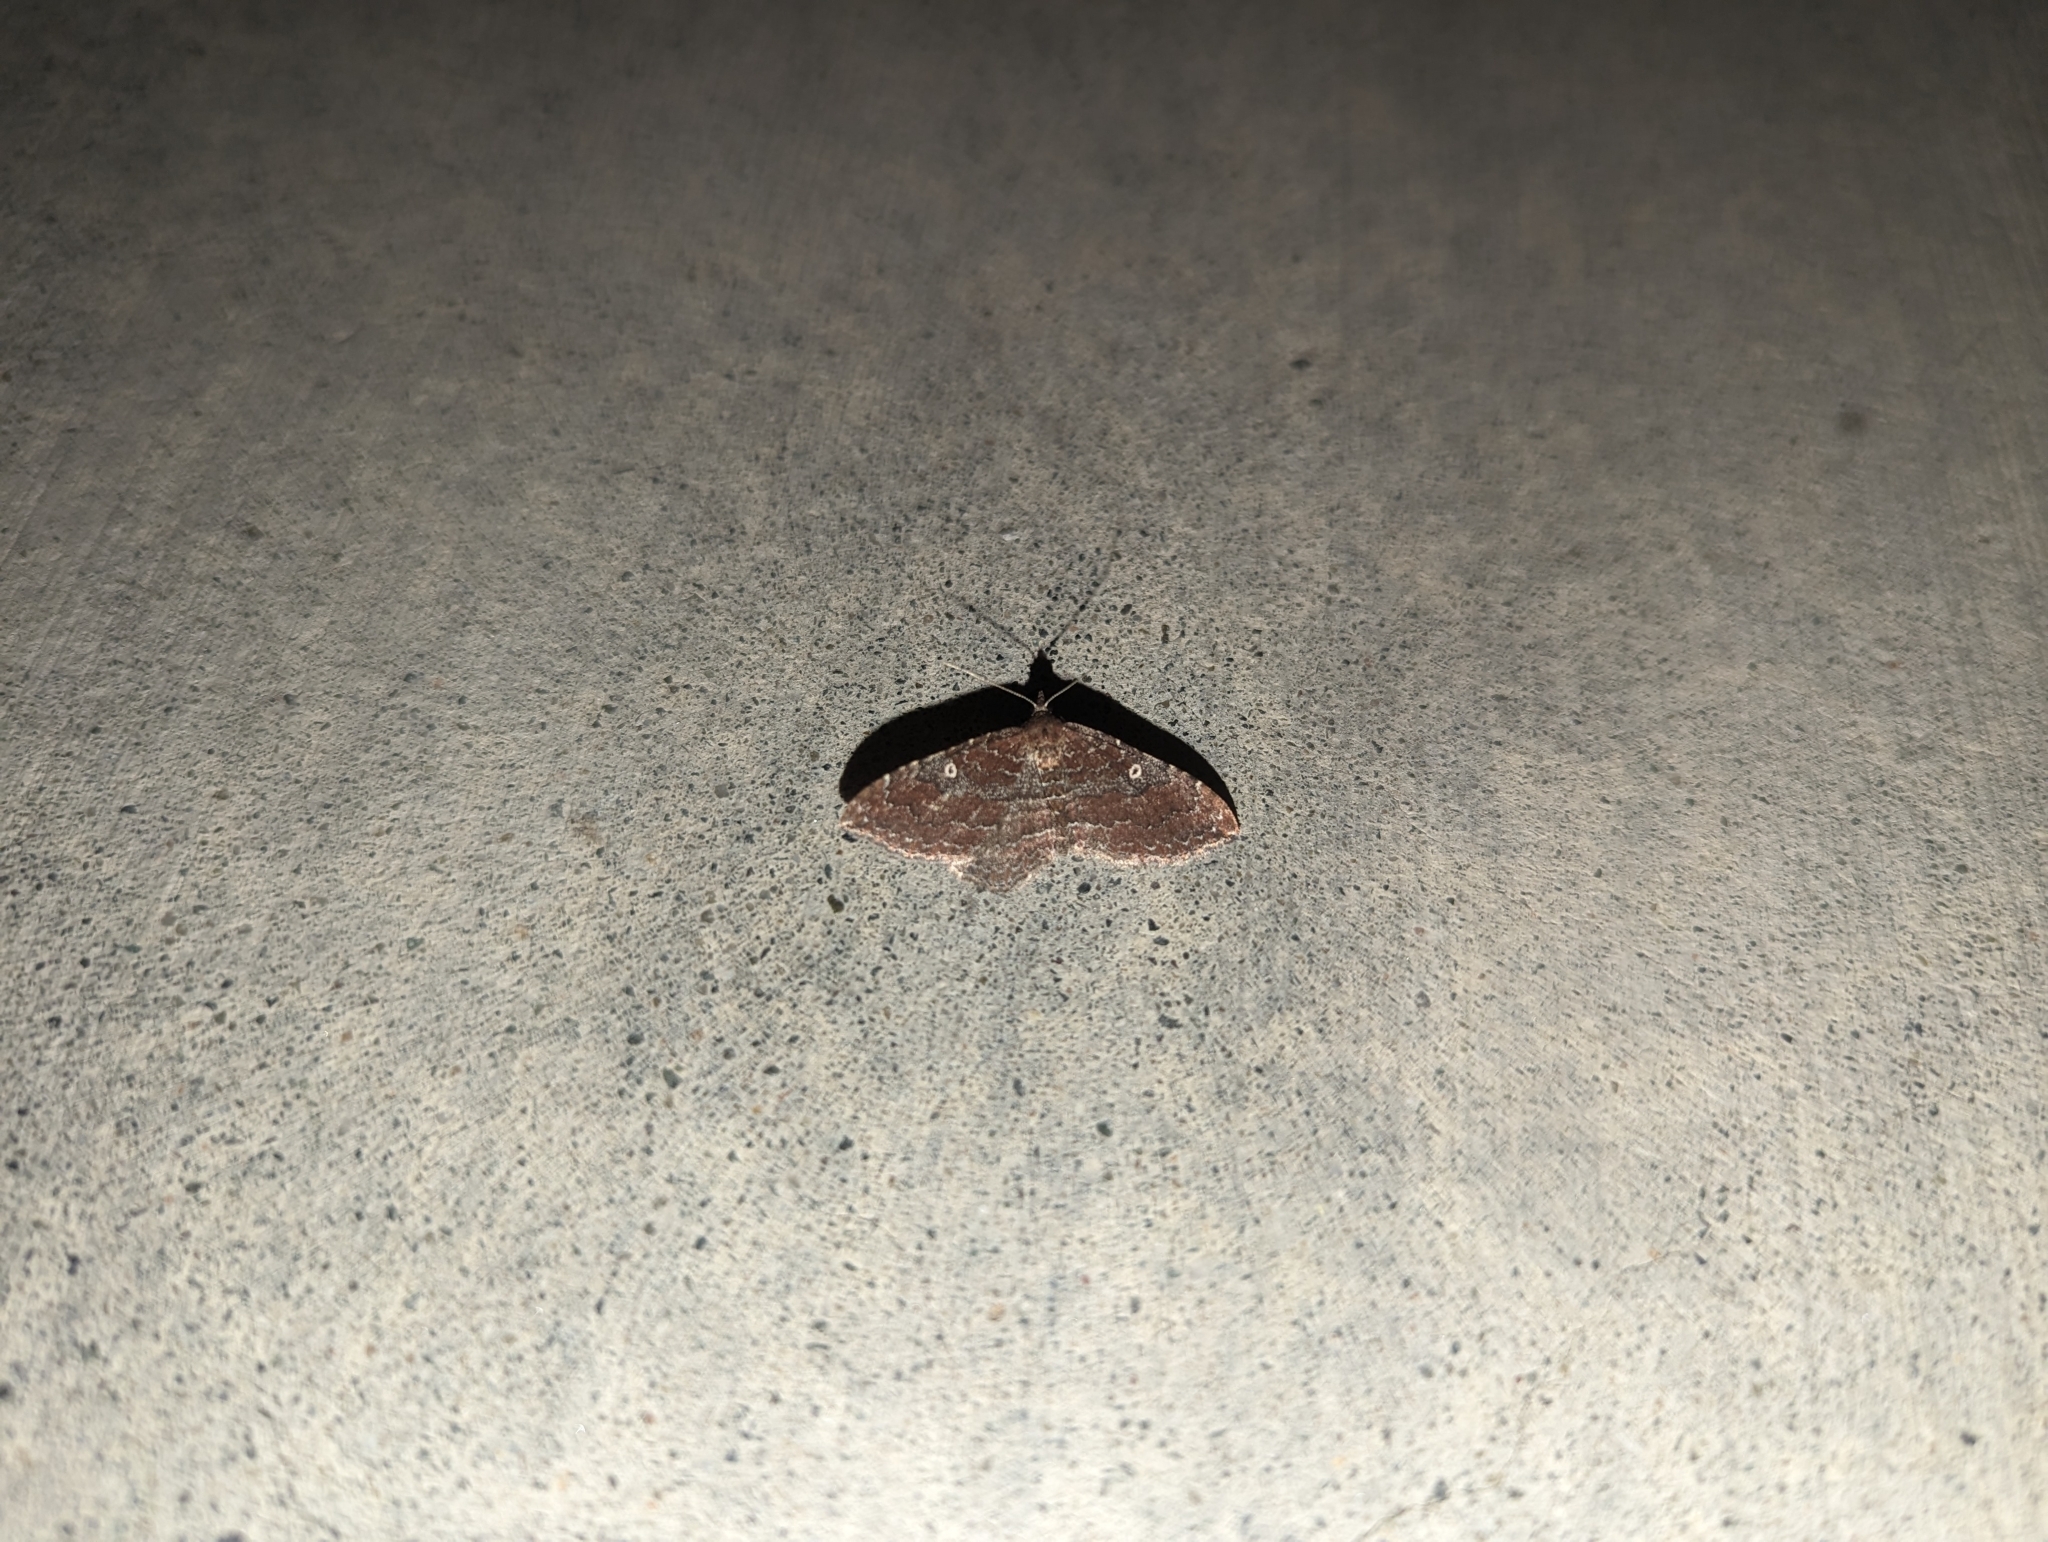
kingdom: Animalia
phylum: Arthropoda
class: Insecta
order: Lepidoptera
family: Geometridae
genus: Orthonama
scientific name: Orthonama obstipata
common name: The gem
